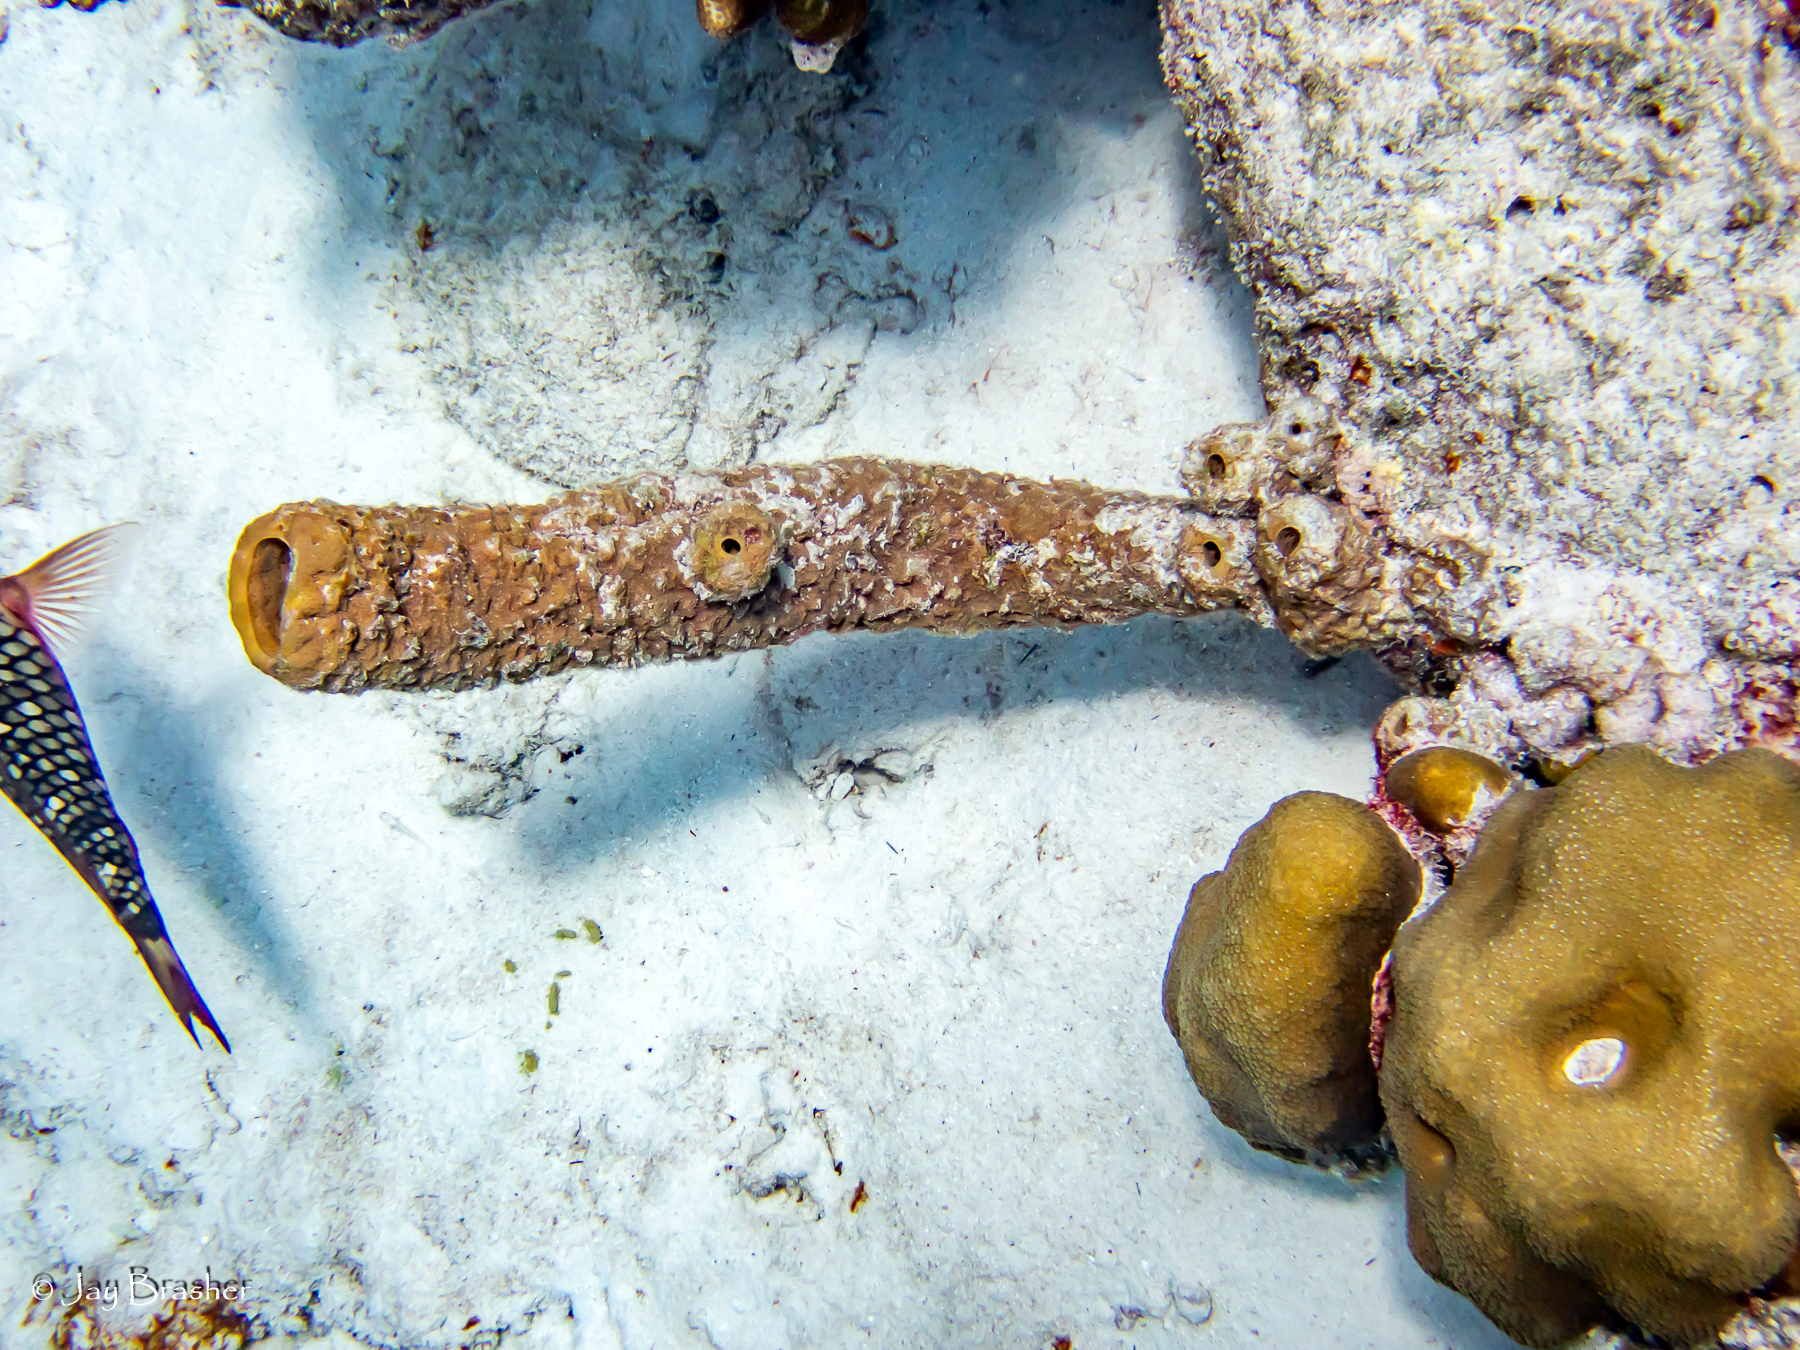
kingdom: Animalia
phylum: Porifera
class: Demospongiae
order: Verongiida
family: Aplysinidae
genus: Aplysina
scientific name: Aplysina archeri
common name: Stove-pipe sponge
